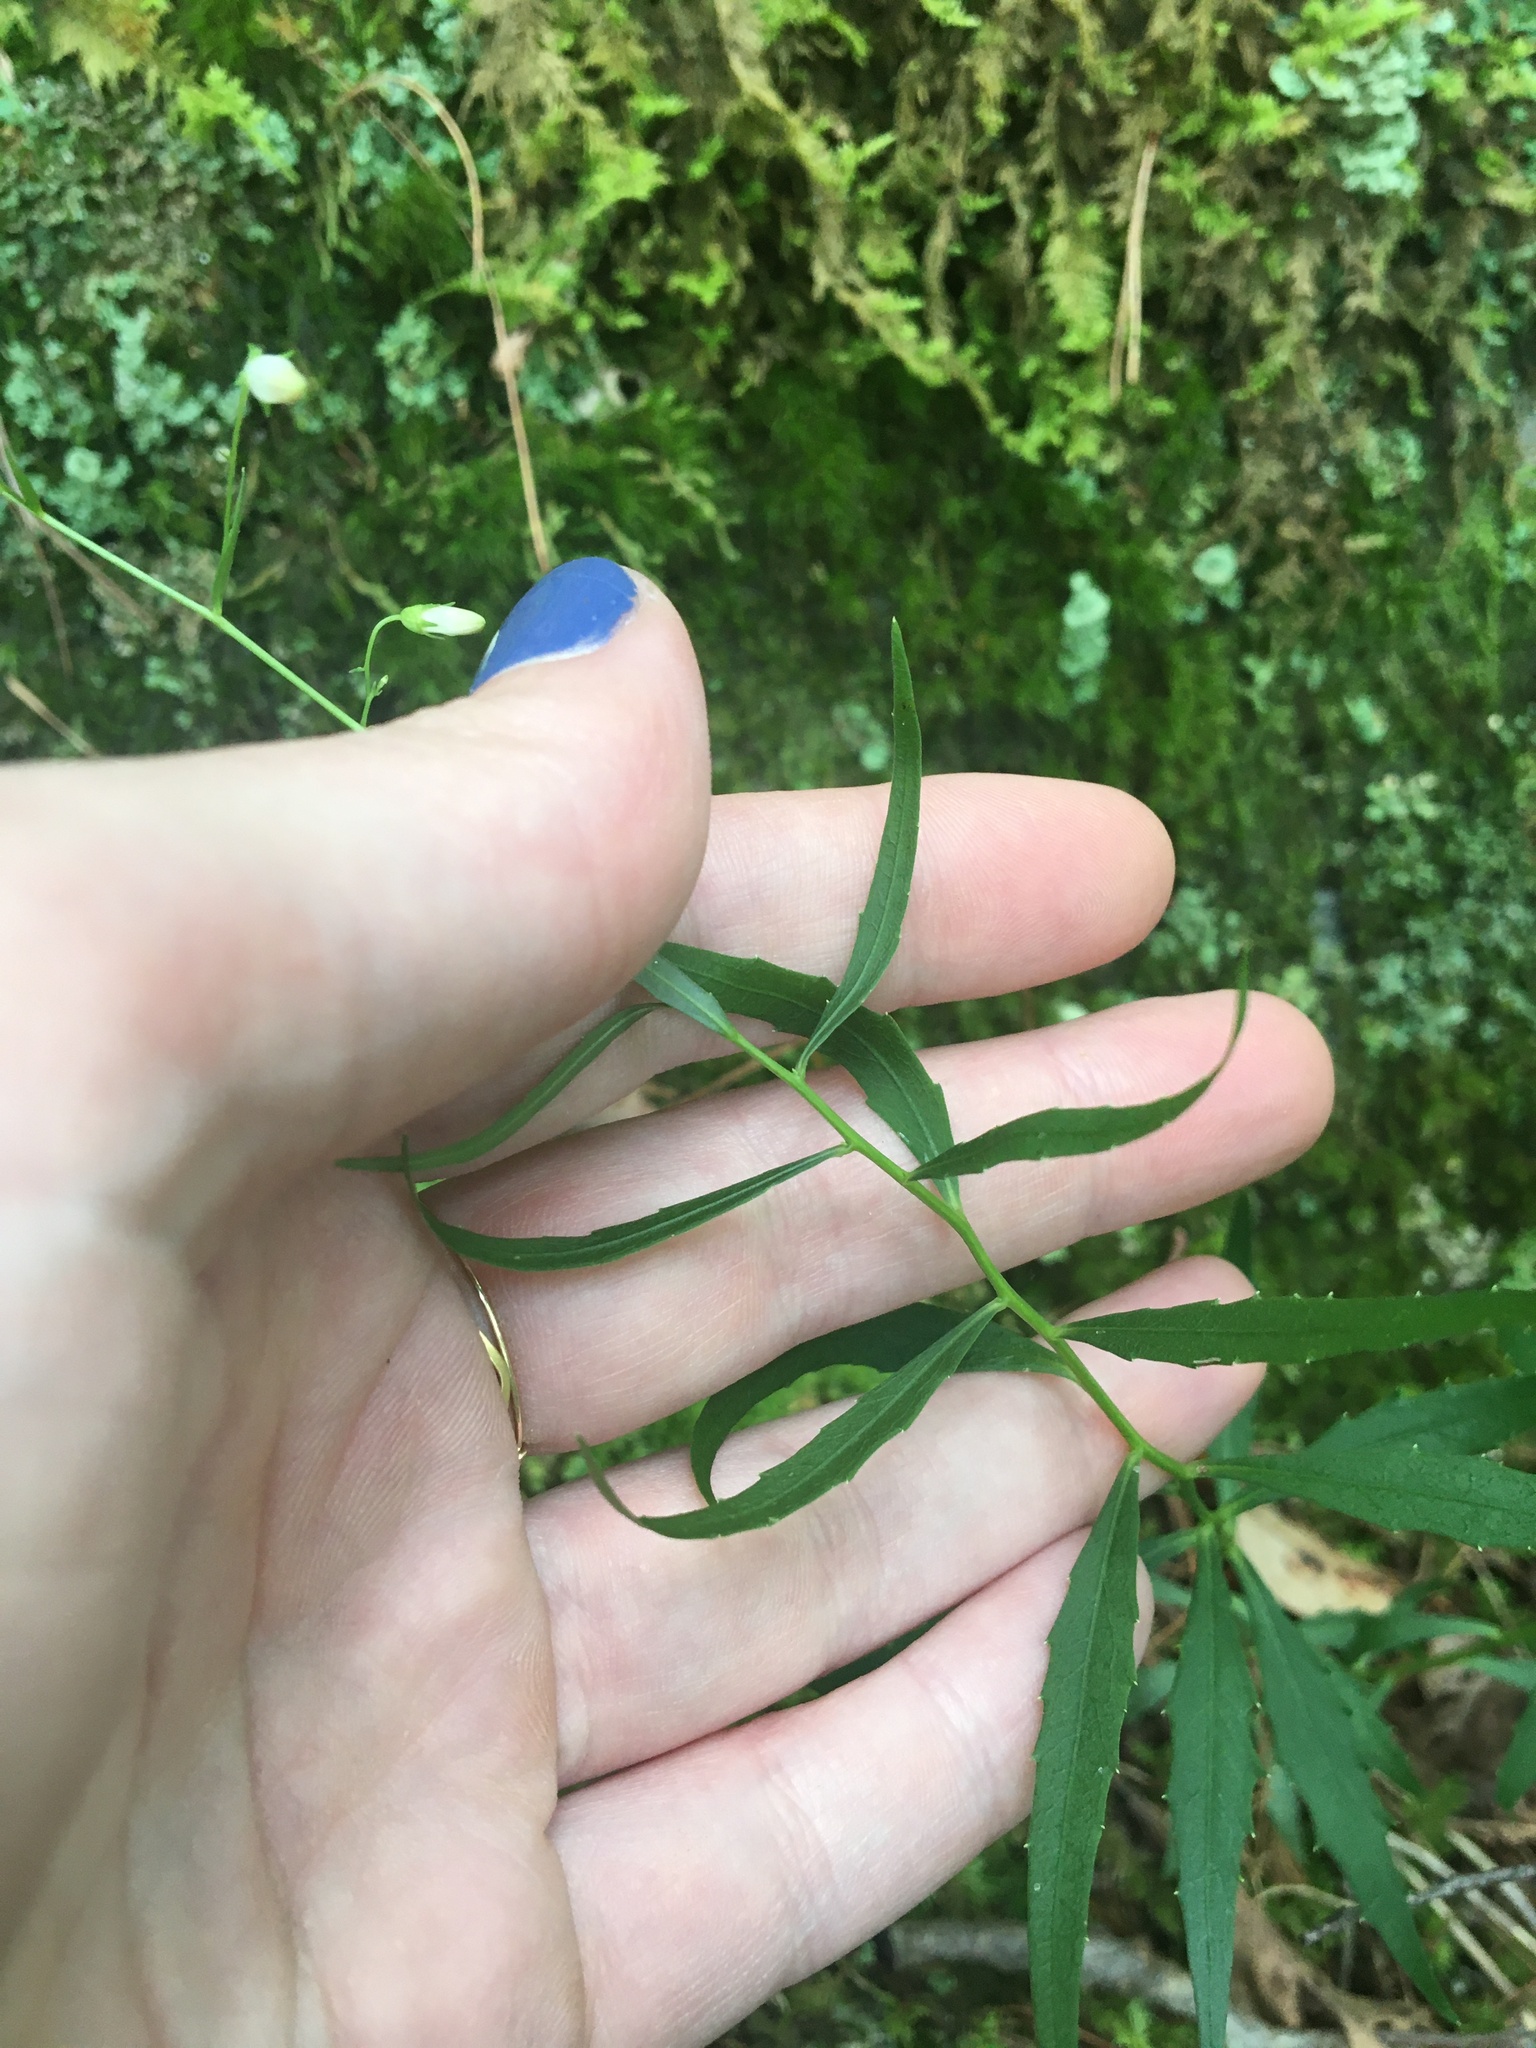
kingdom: Plantae
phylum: Tracheophyta
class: Magnoliopsida
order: Asterales
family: Campanulaceae
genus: Campanula
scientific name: Campanula divaricata
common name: Appalachian bellflower
